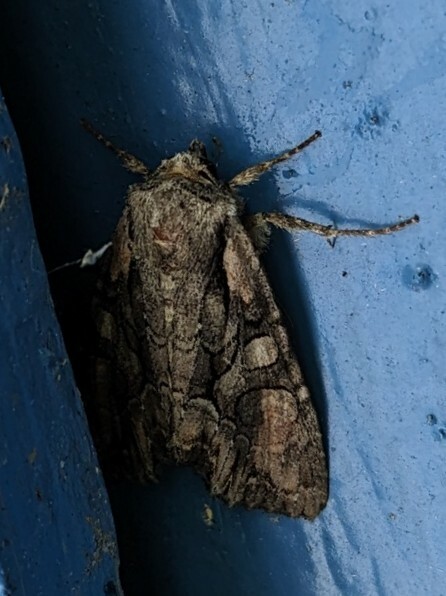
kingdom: Animalia
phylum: Arthropoda
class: Insecta
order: Lepidoptera
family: Noctuidae
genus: Lacanobia
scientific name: Lacanobia subjuncta
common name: Speckled cutworm moth
